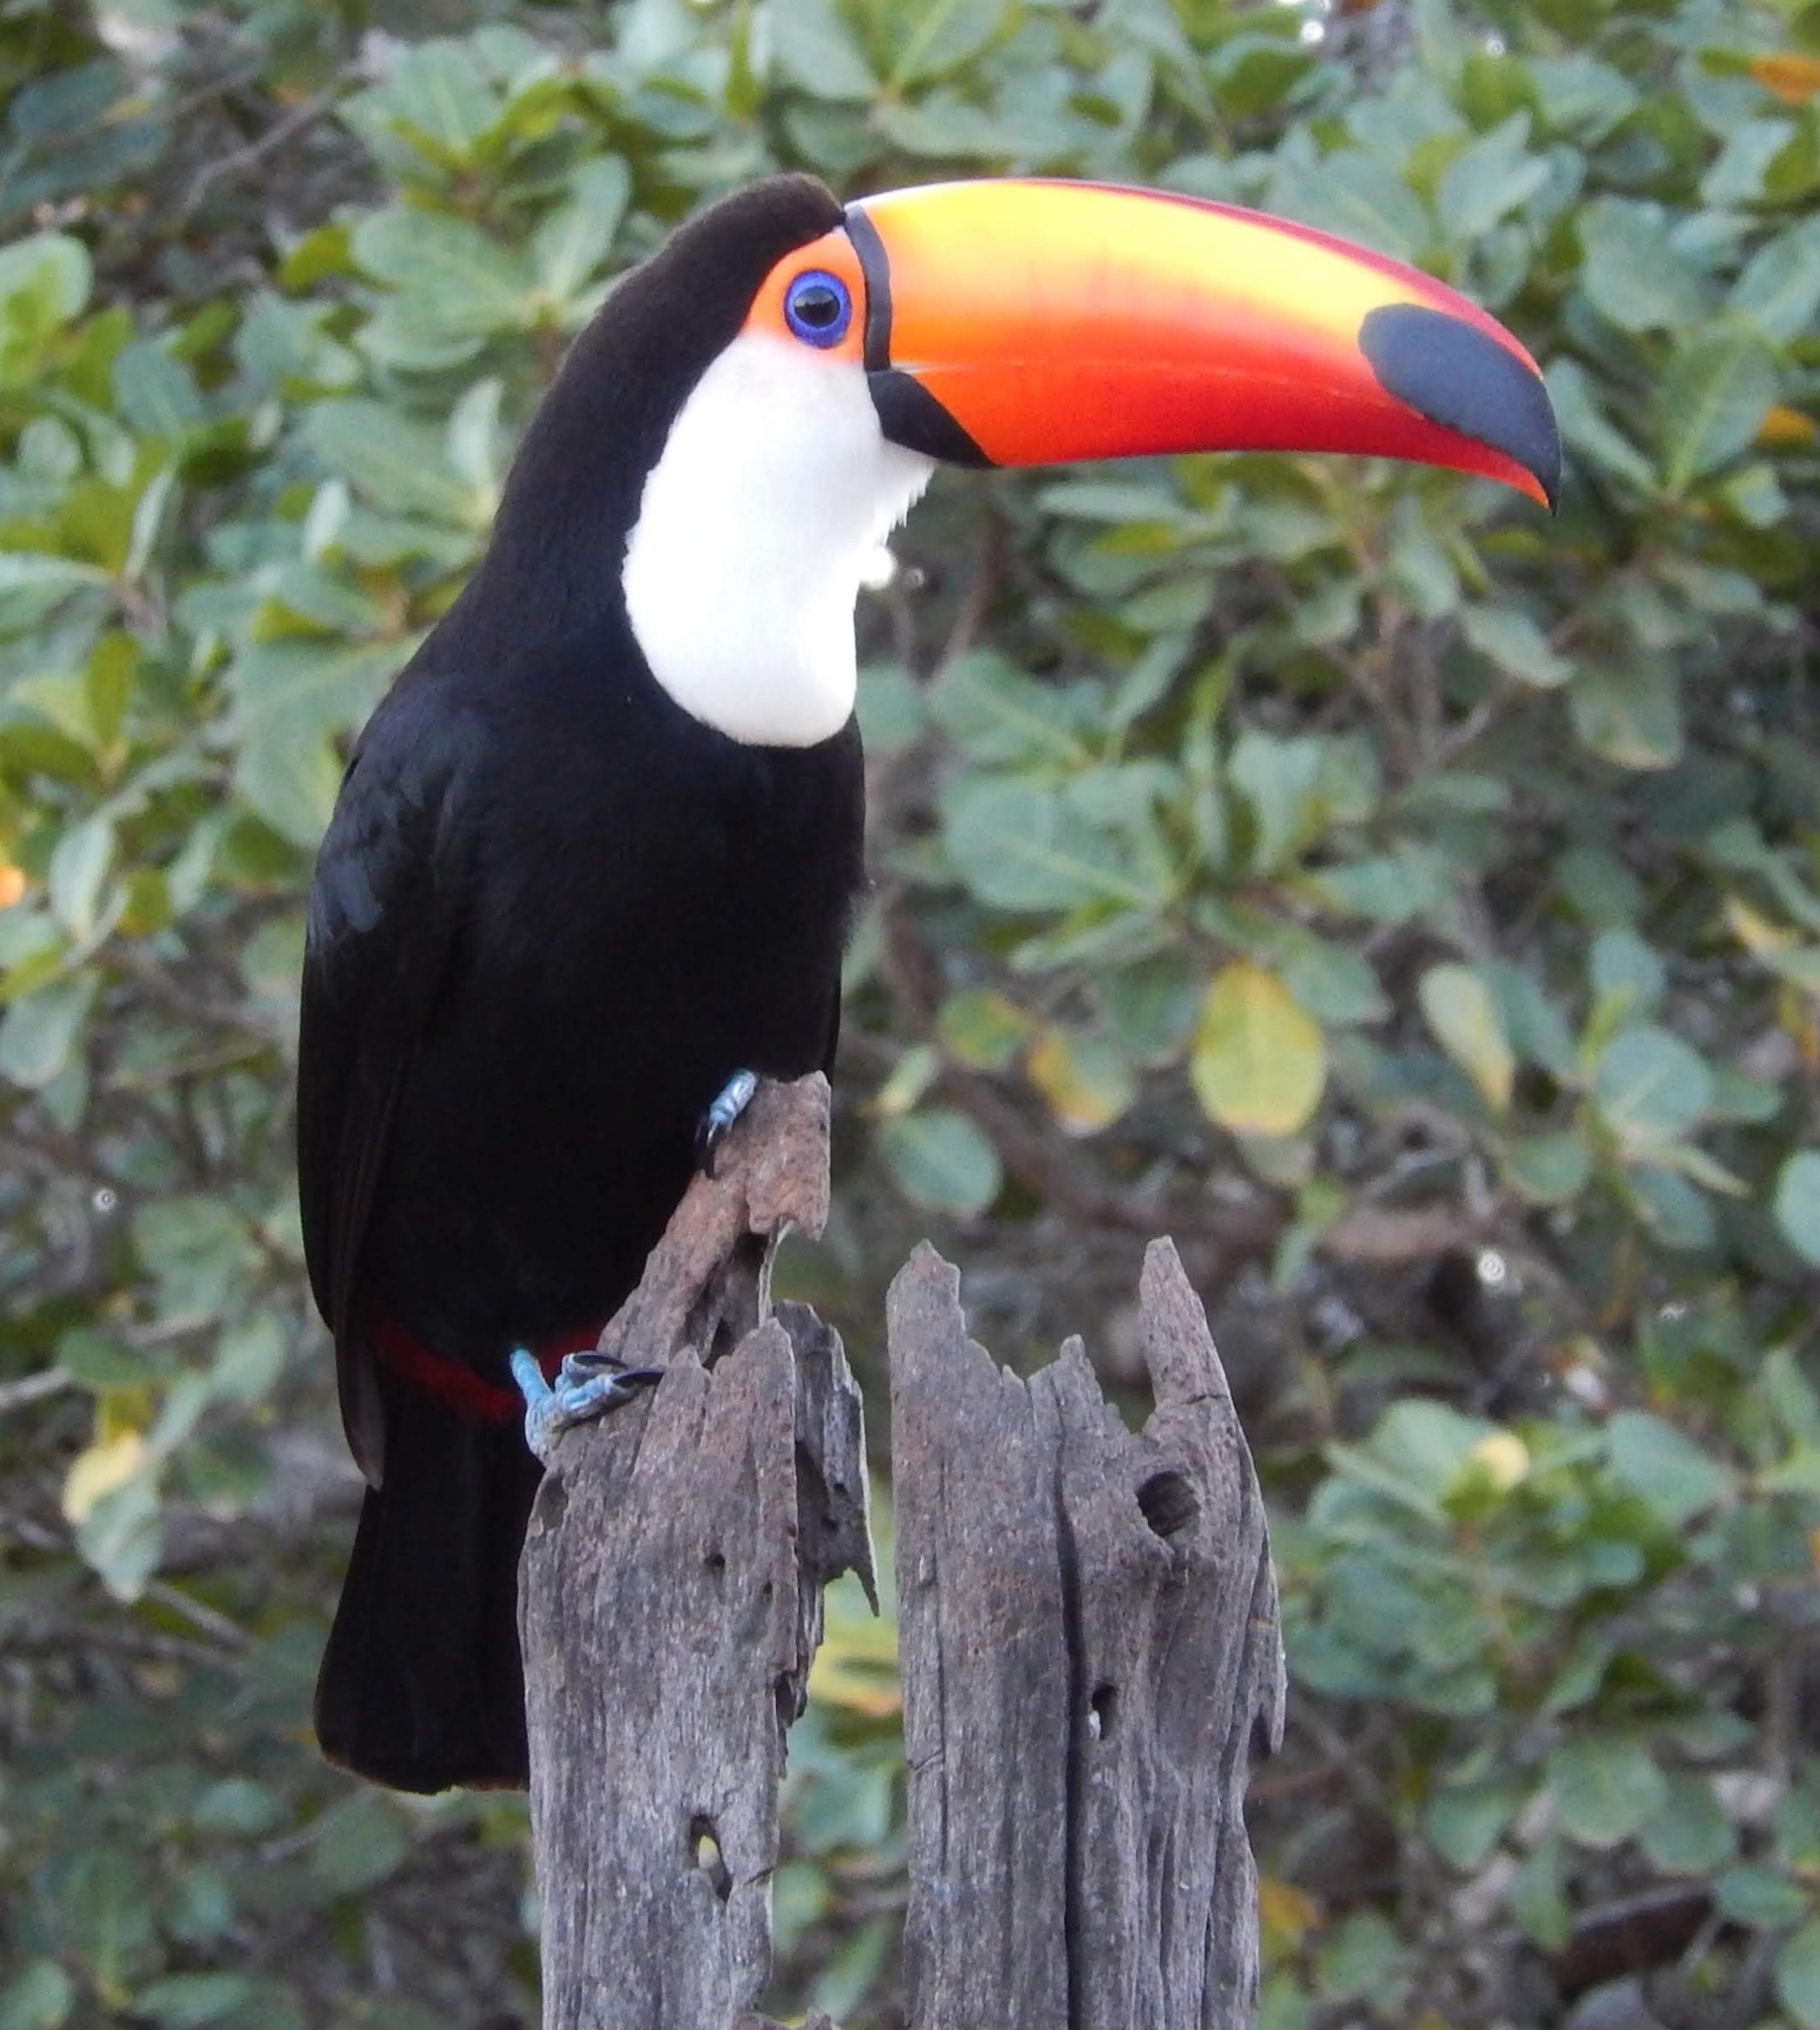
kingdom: Animalia
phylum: Chordata
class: Aves
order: Piciformes
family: Ramphastidae
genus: Ramphastos
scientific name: Ramphastos toco
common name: Toco toucan
